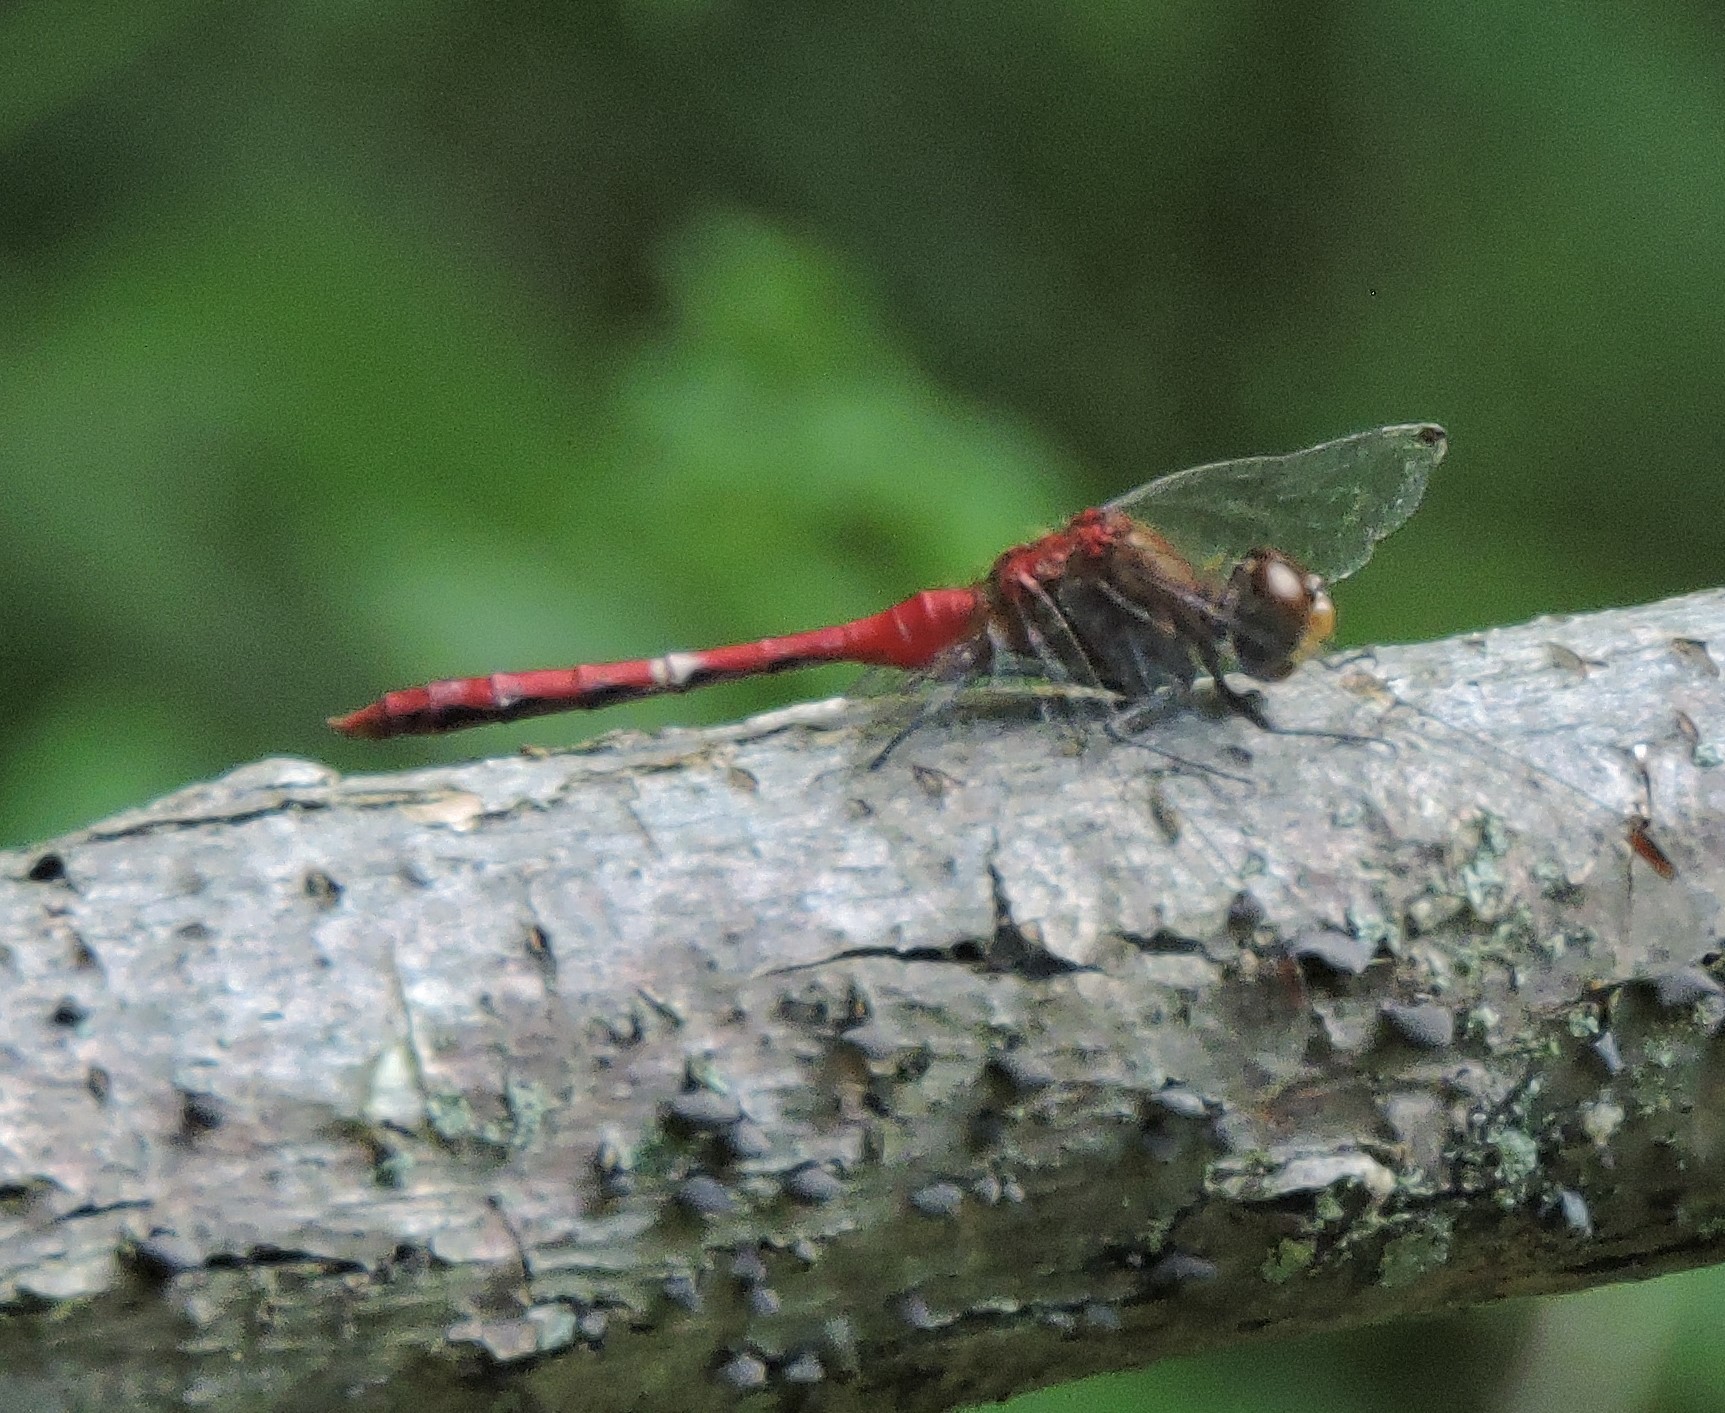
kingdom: Animalia
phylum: Arthropoda
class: Insecta
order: Odonata
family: Libellulidae
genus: Sympetrum
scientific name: Sympetrum
